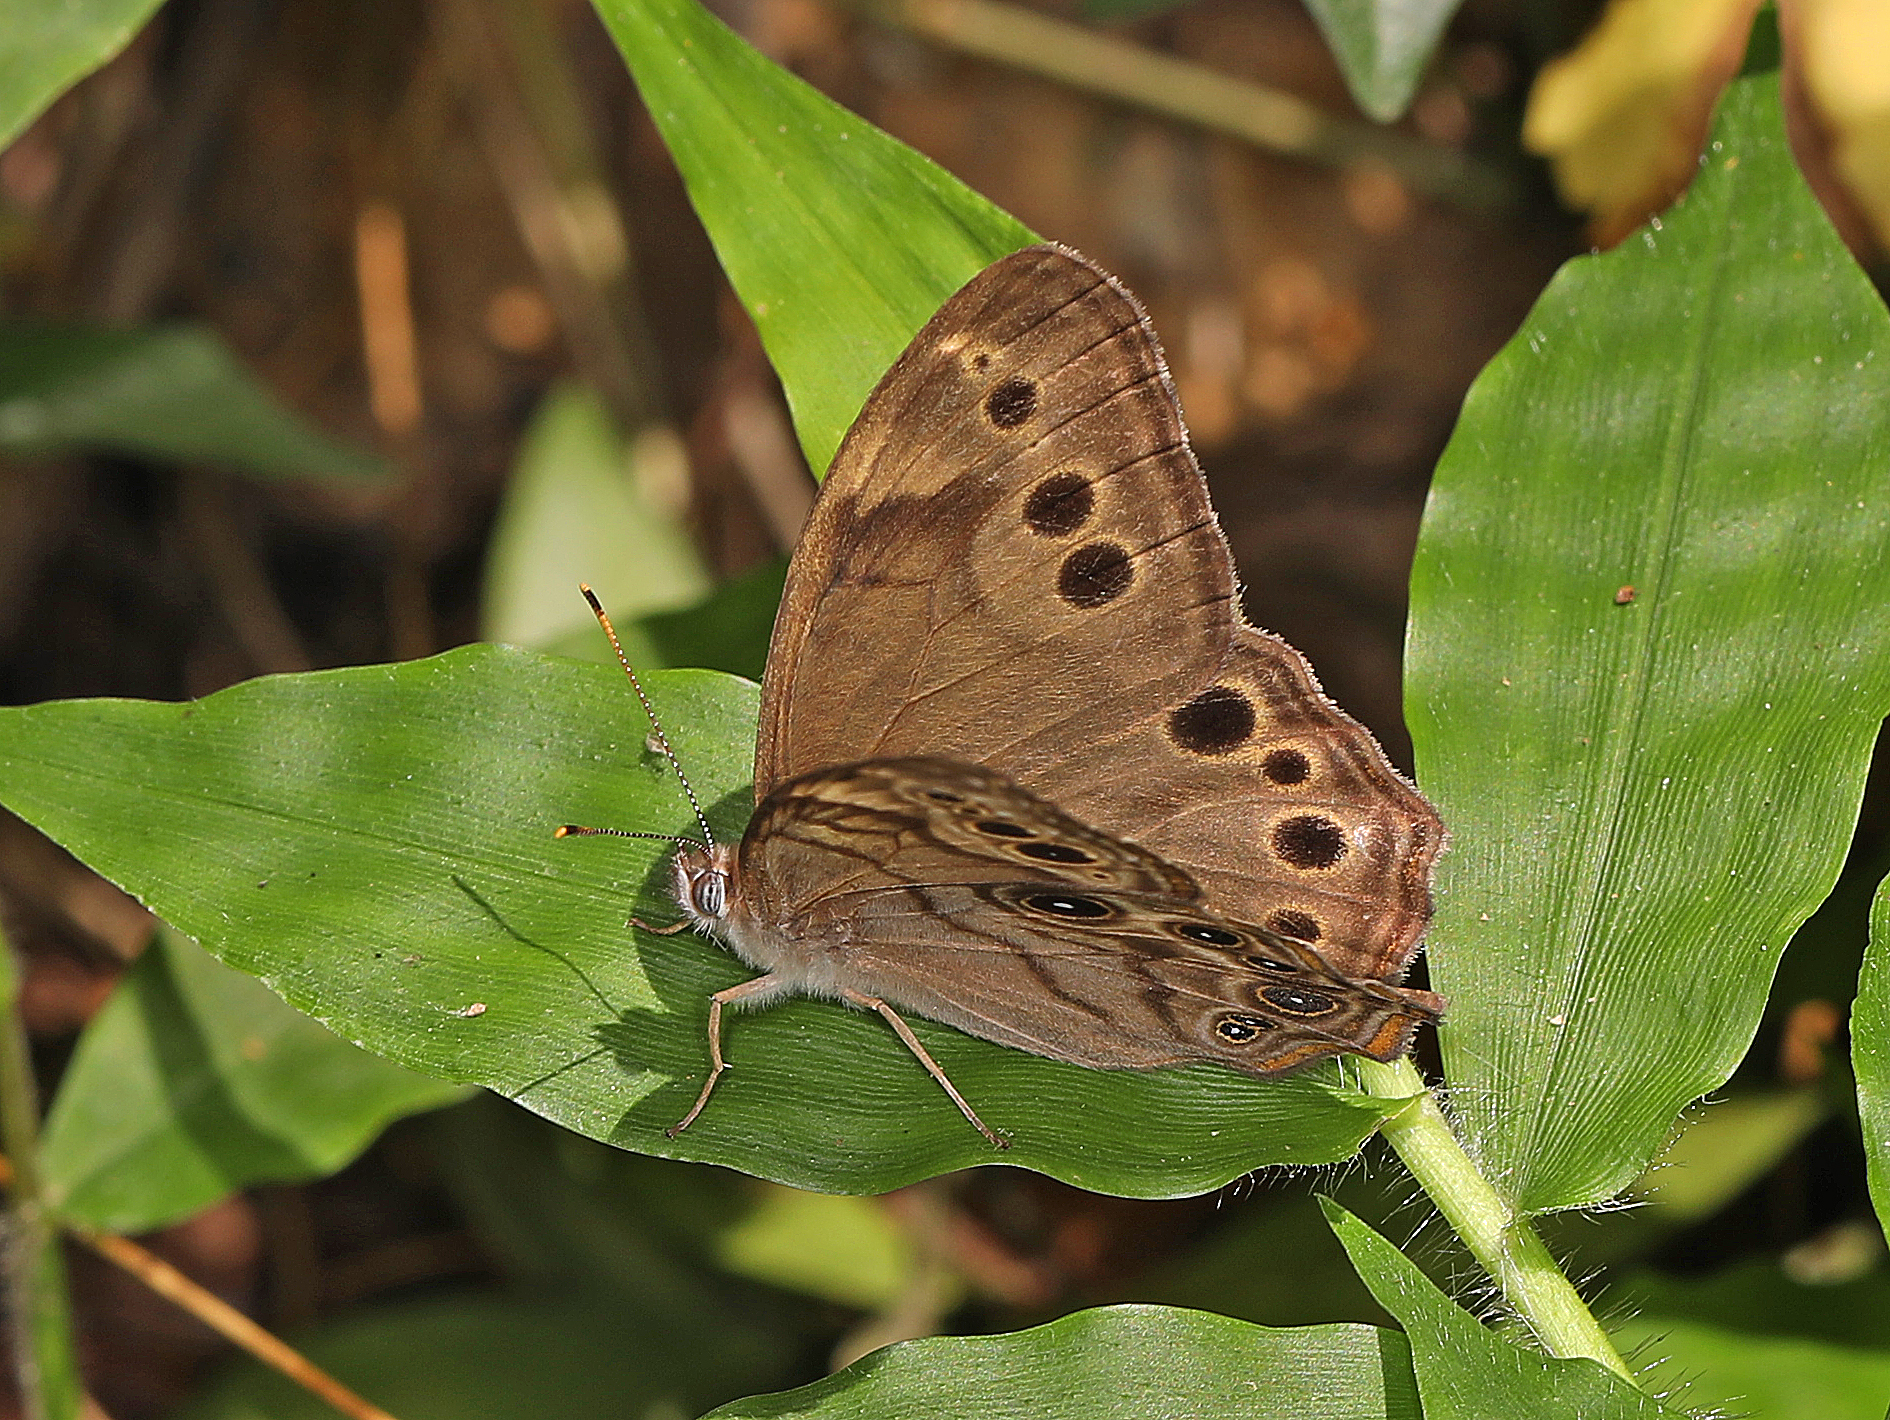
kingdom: Animalia
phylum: Arthropoda
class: Insecta
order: Lepidoptera
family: Nymphalidae
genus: Lethe
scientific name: Lethe anthedon
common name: Northern pearly-eye
